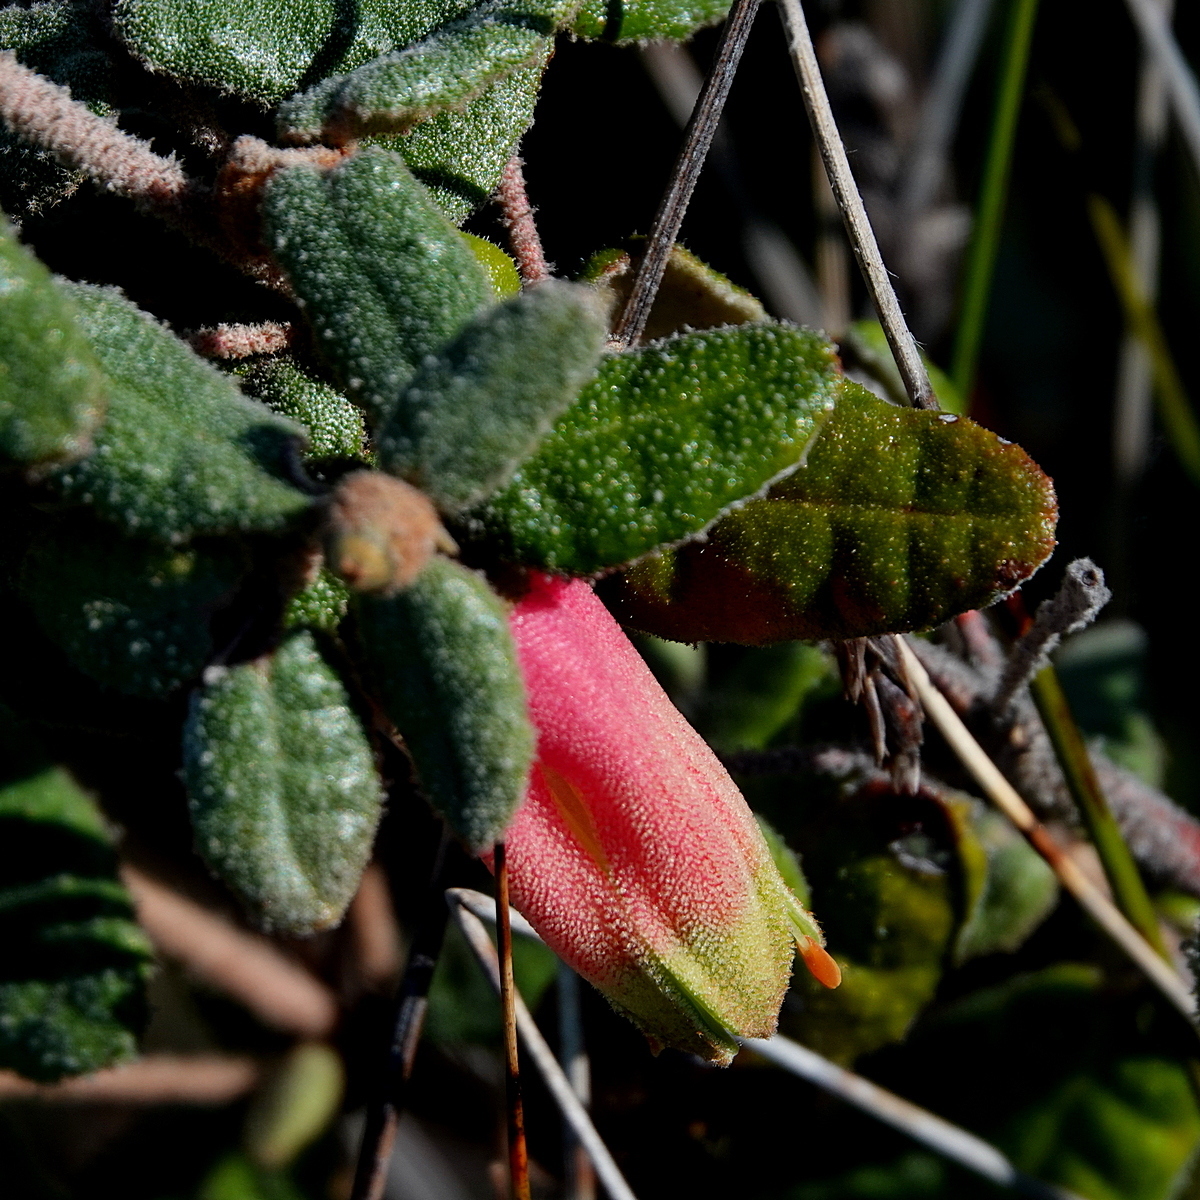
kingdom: Plantae
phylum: Tracheophyta
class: Magnoliopsida
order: Sapindales
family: Rutaceae
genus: Correa
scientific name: Correa reflexa
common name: Common correa
